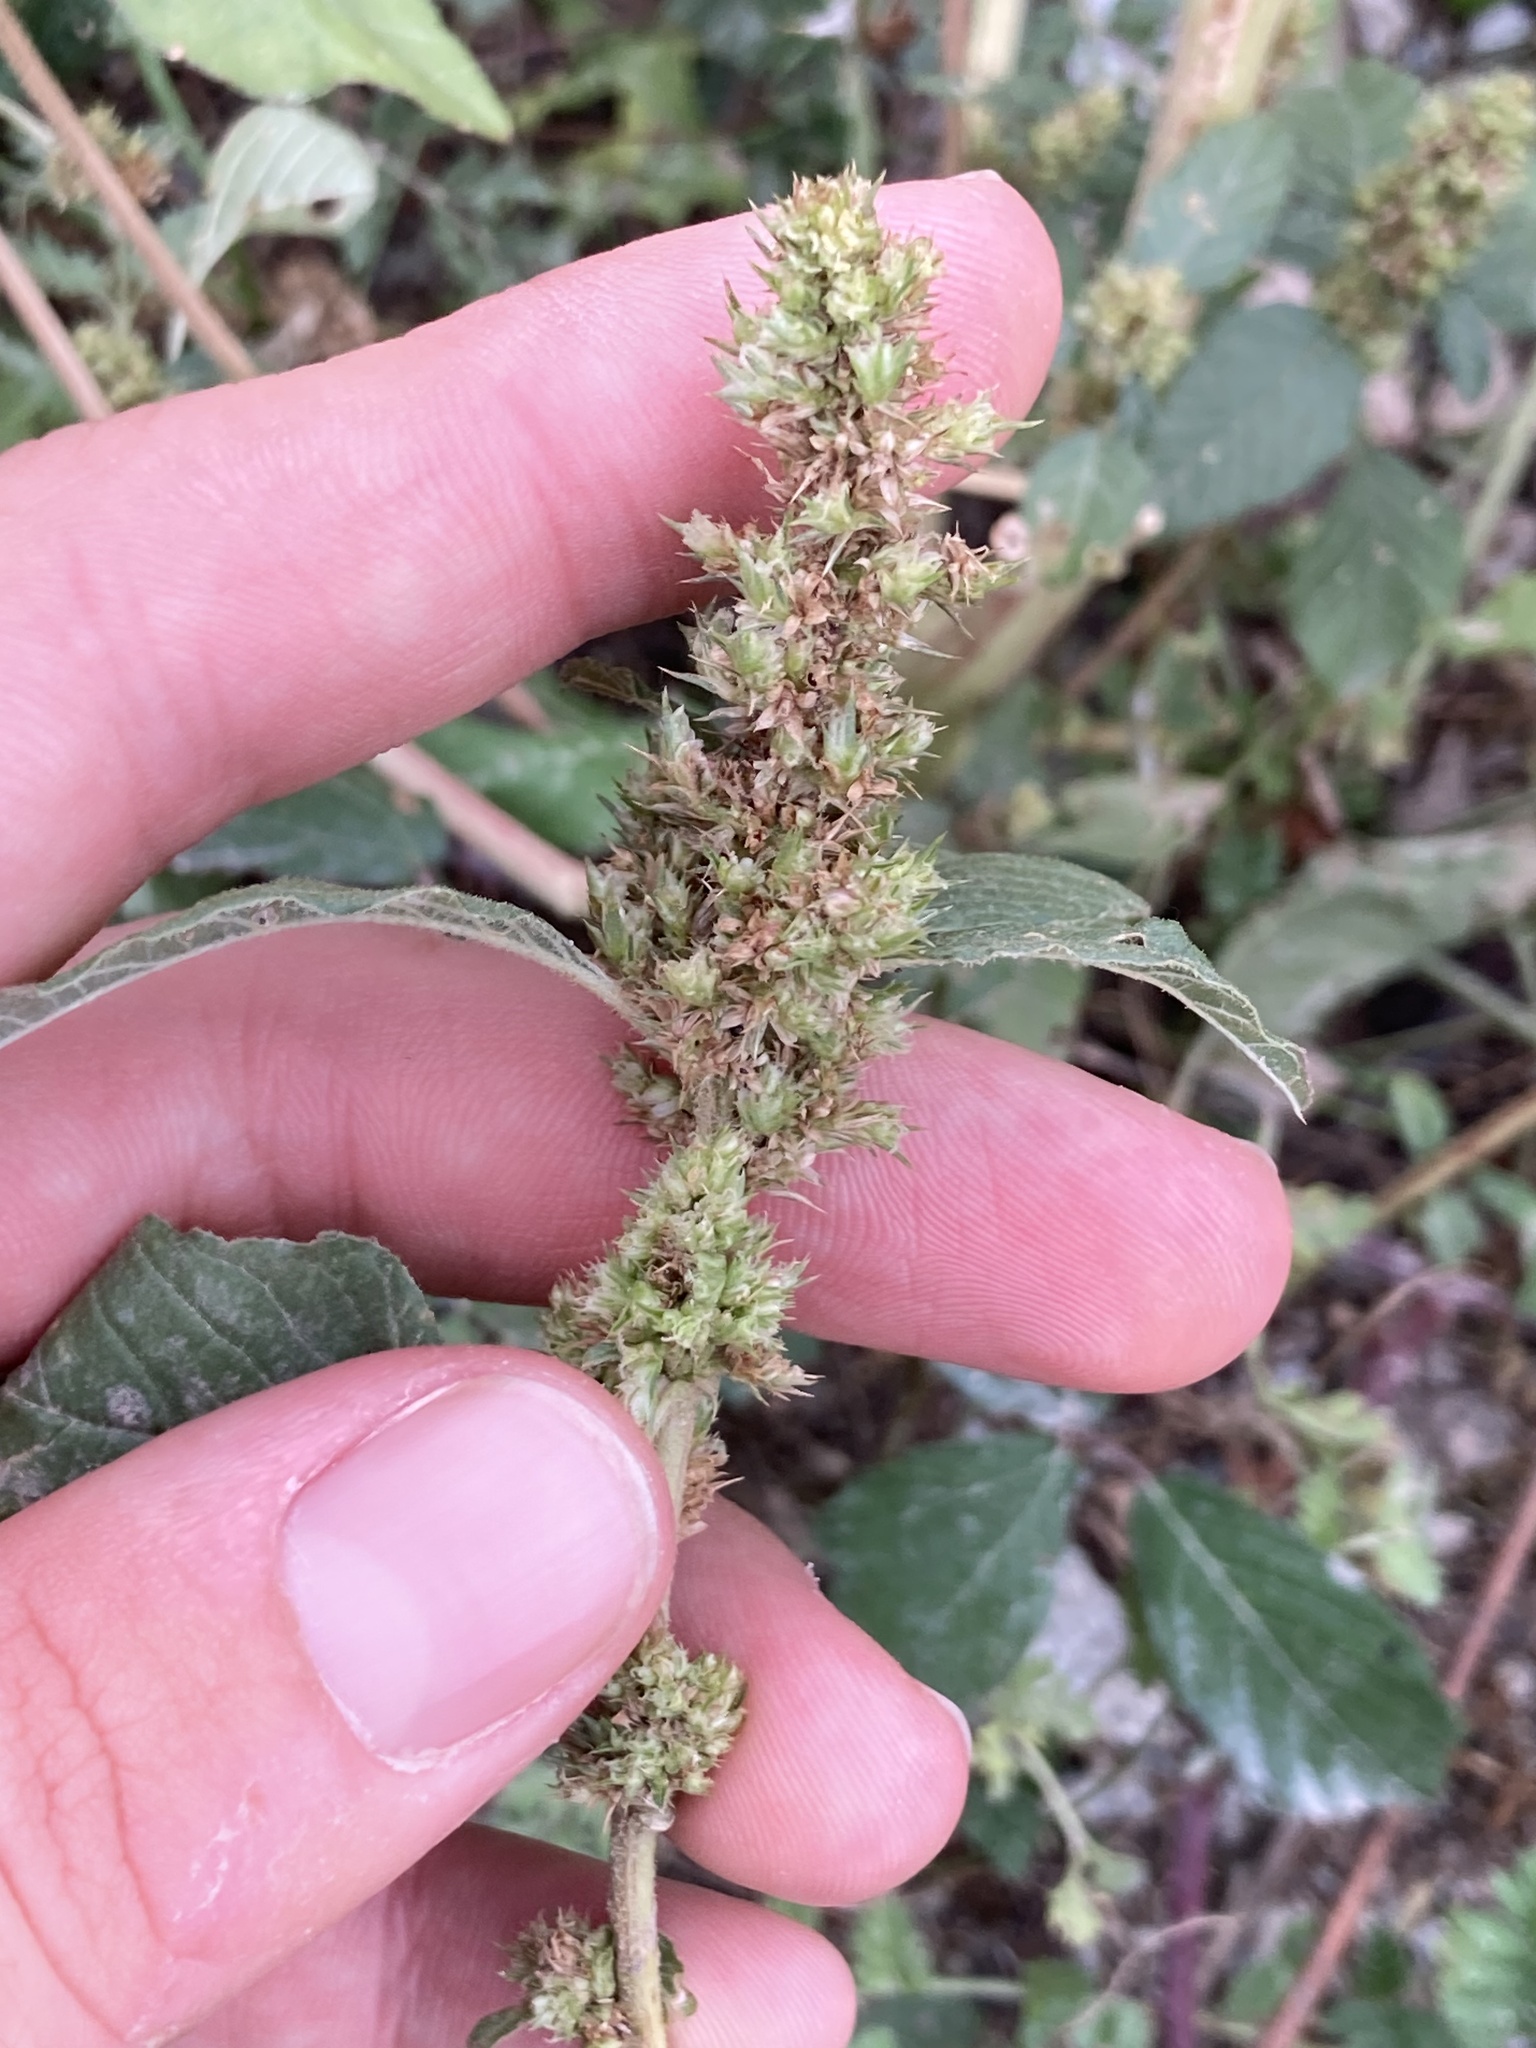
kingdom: Plantae
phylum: Tracheophyta
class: Magnoliopsida
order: Caryophyllales
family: Amaranthaceae
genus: Amaranthus
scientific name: Amaranthus retroflexus
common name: Redroot amaranth
